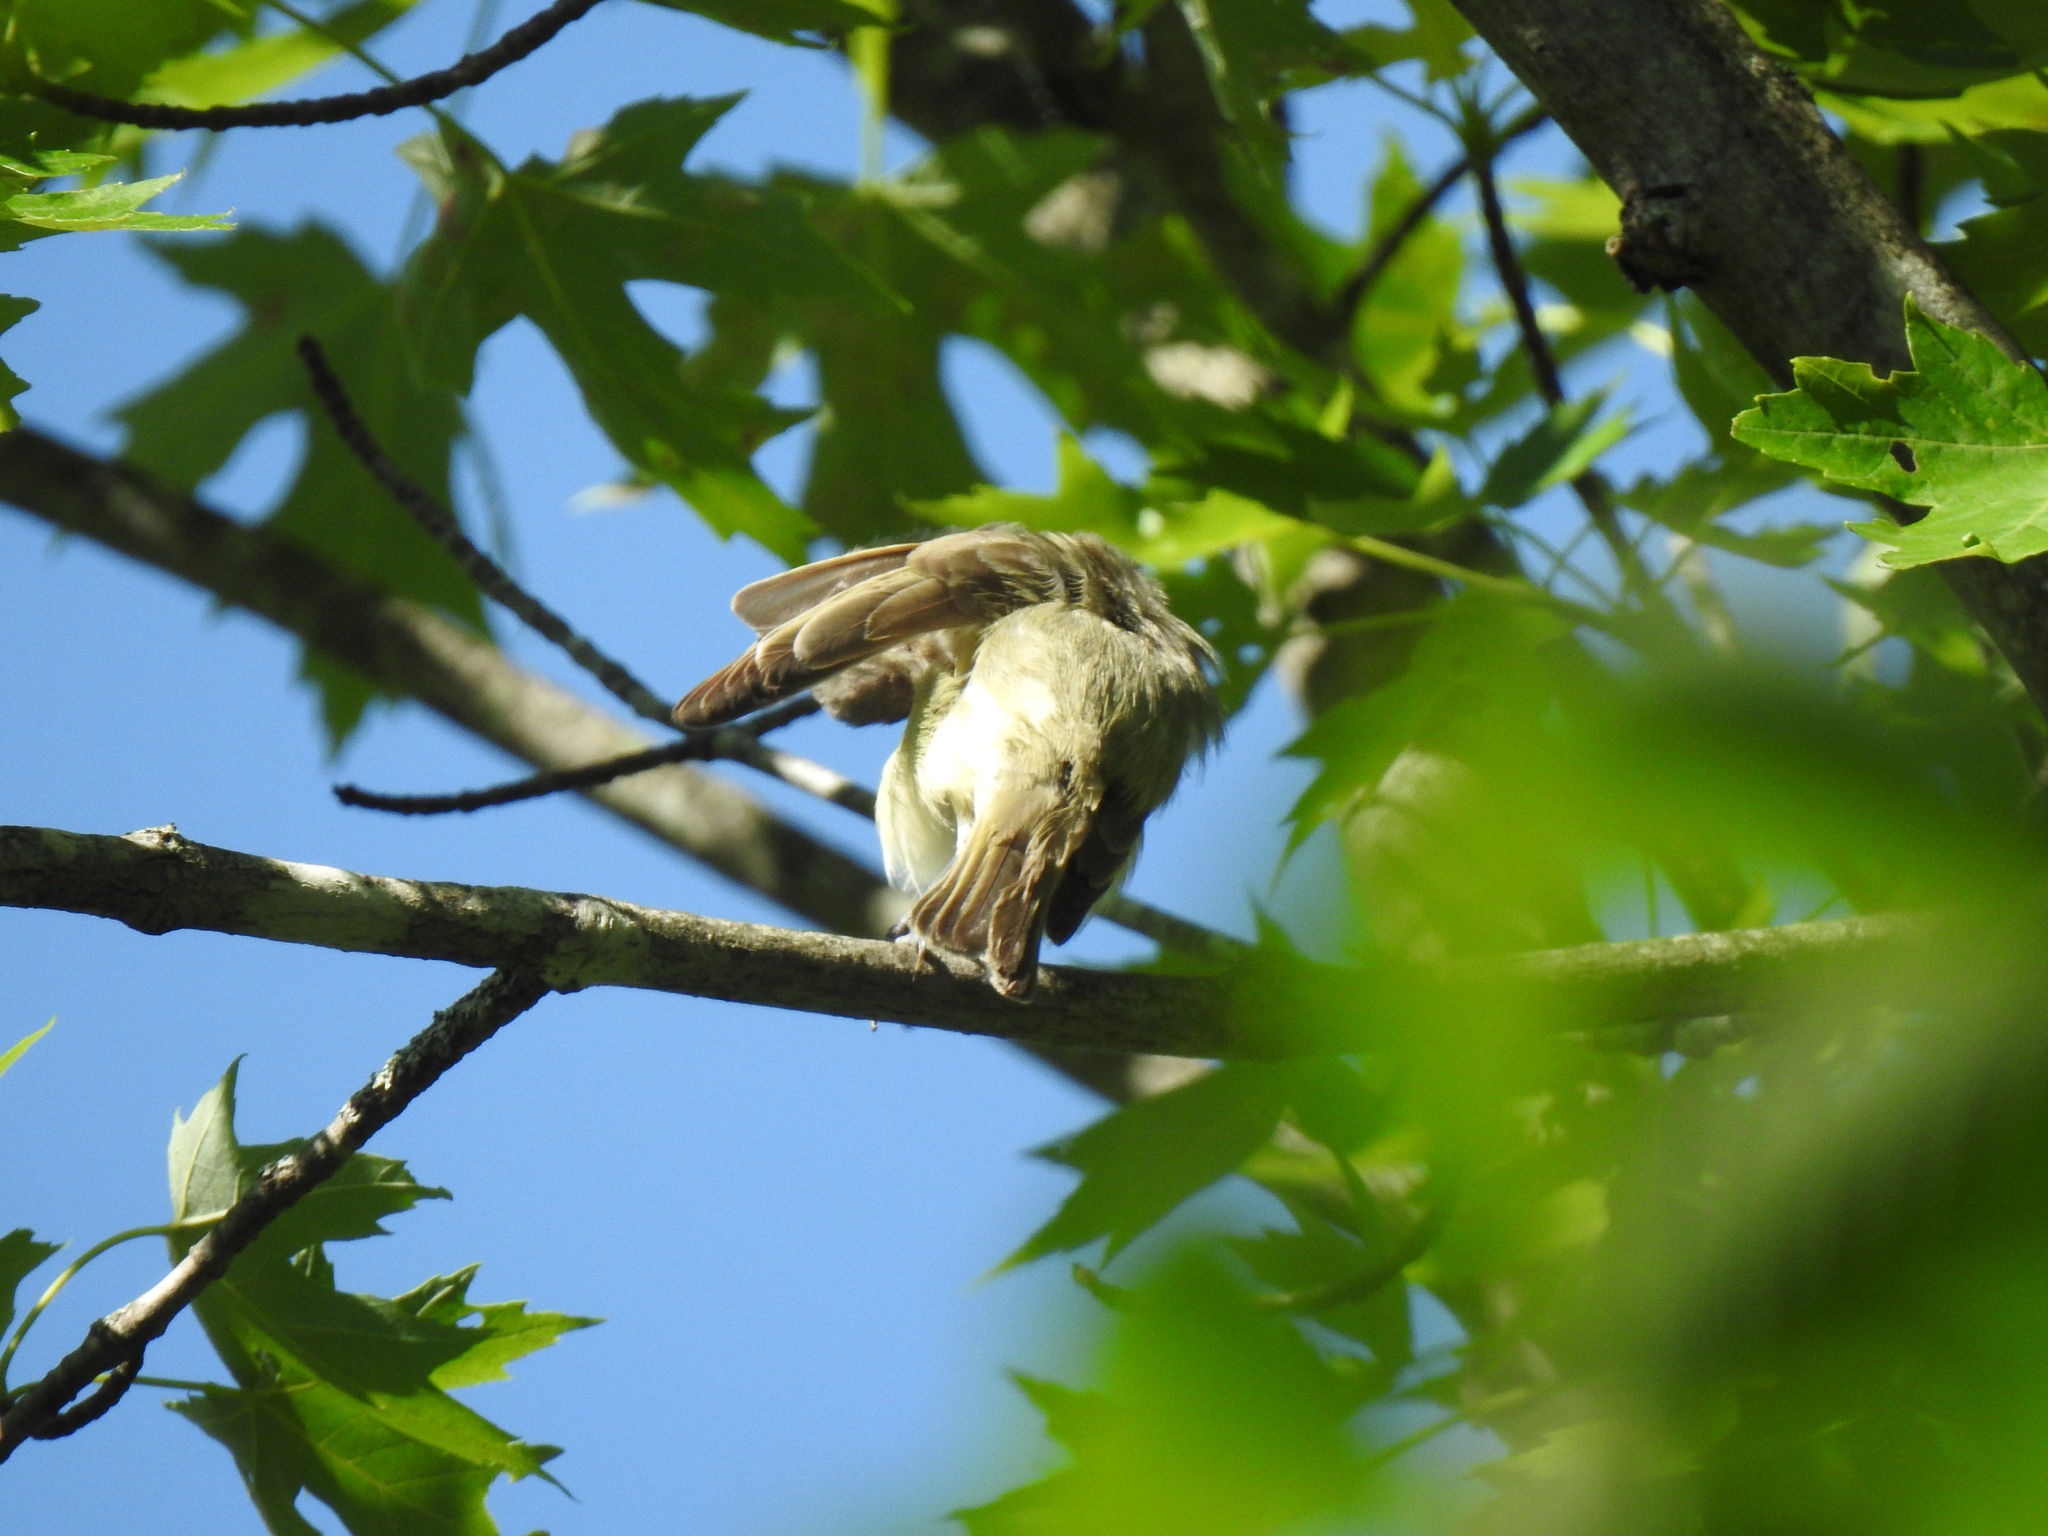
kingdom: Animalia
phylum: Chordata
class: Aves
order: Passeriformes
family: Vireonidae
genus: Vireo
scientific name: Vireo olivaceus
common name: Red-eyed vireo
